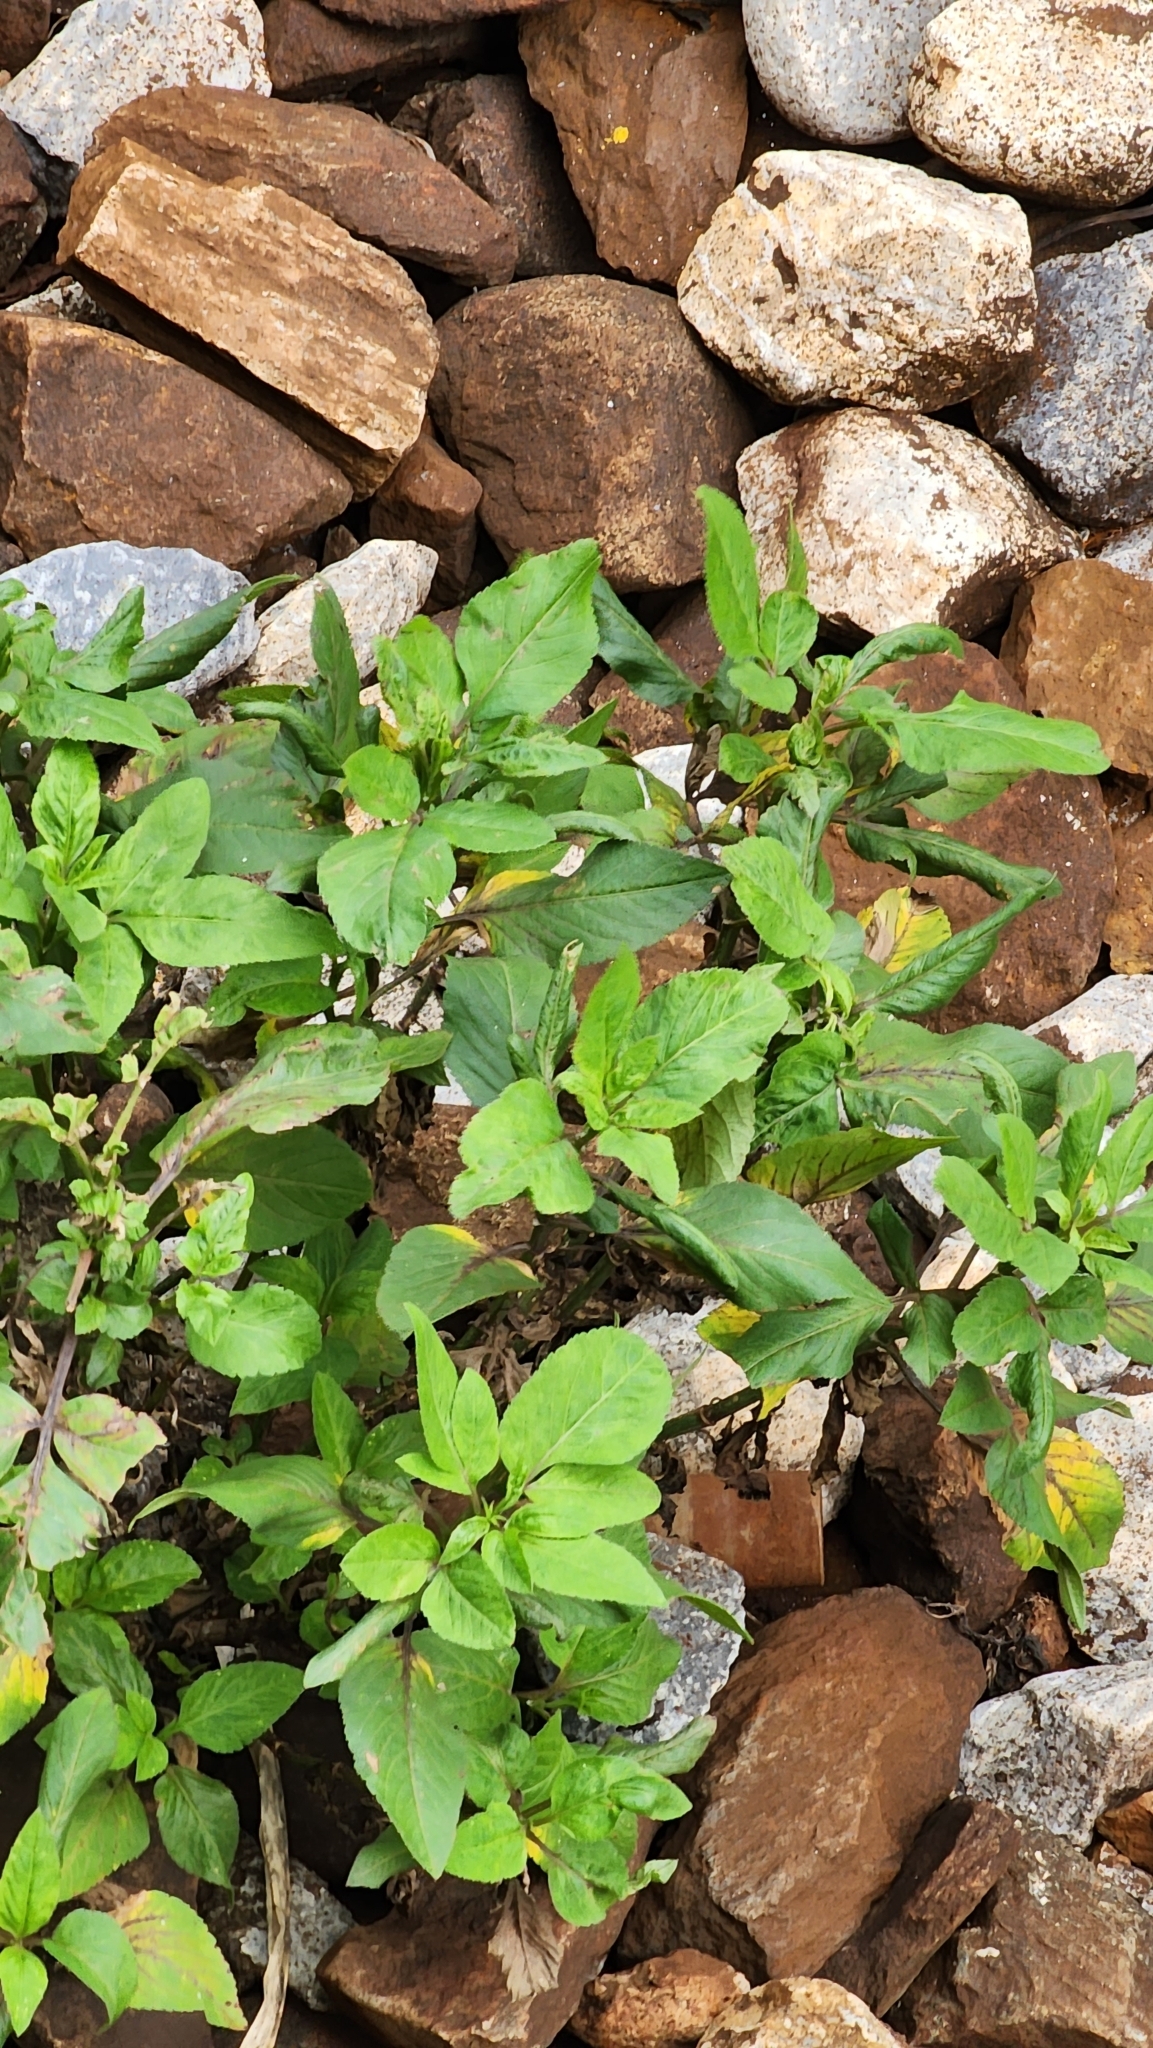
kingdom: Plantae
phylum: Tracheophyta
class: Magnoliopsida
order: Asterales
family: Asteraceae
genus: Bidens
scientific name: Bidens alba
